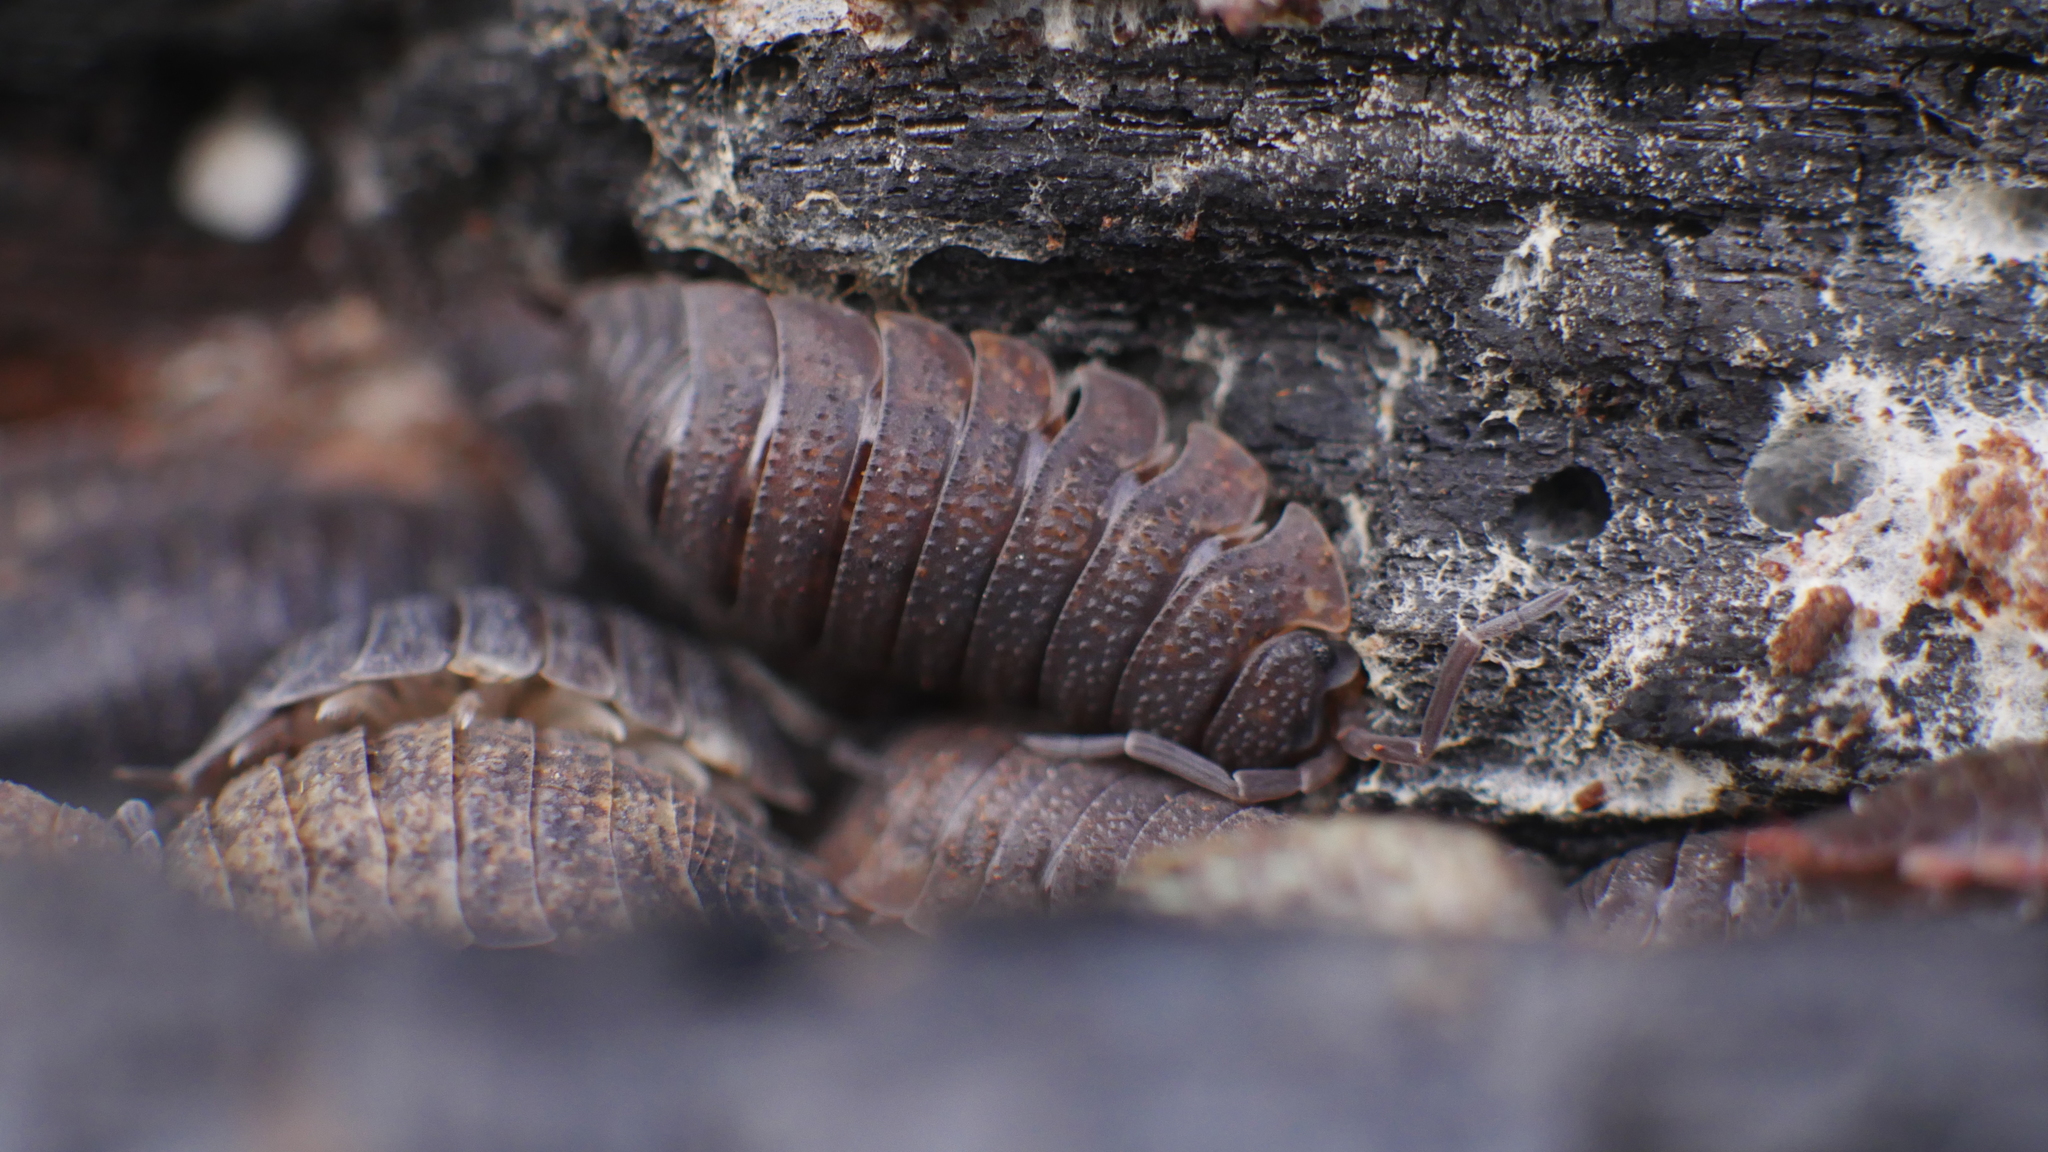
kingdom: Animalia
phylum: Arthropoda
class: Malacostraca
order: Isopoda
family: Porcellionidae
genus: Porcellio
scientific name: Porcellio scaber
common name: Common rough woodlouse
